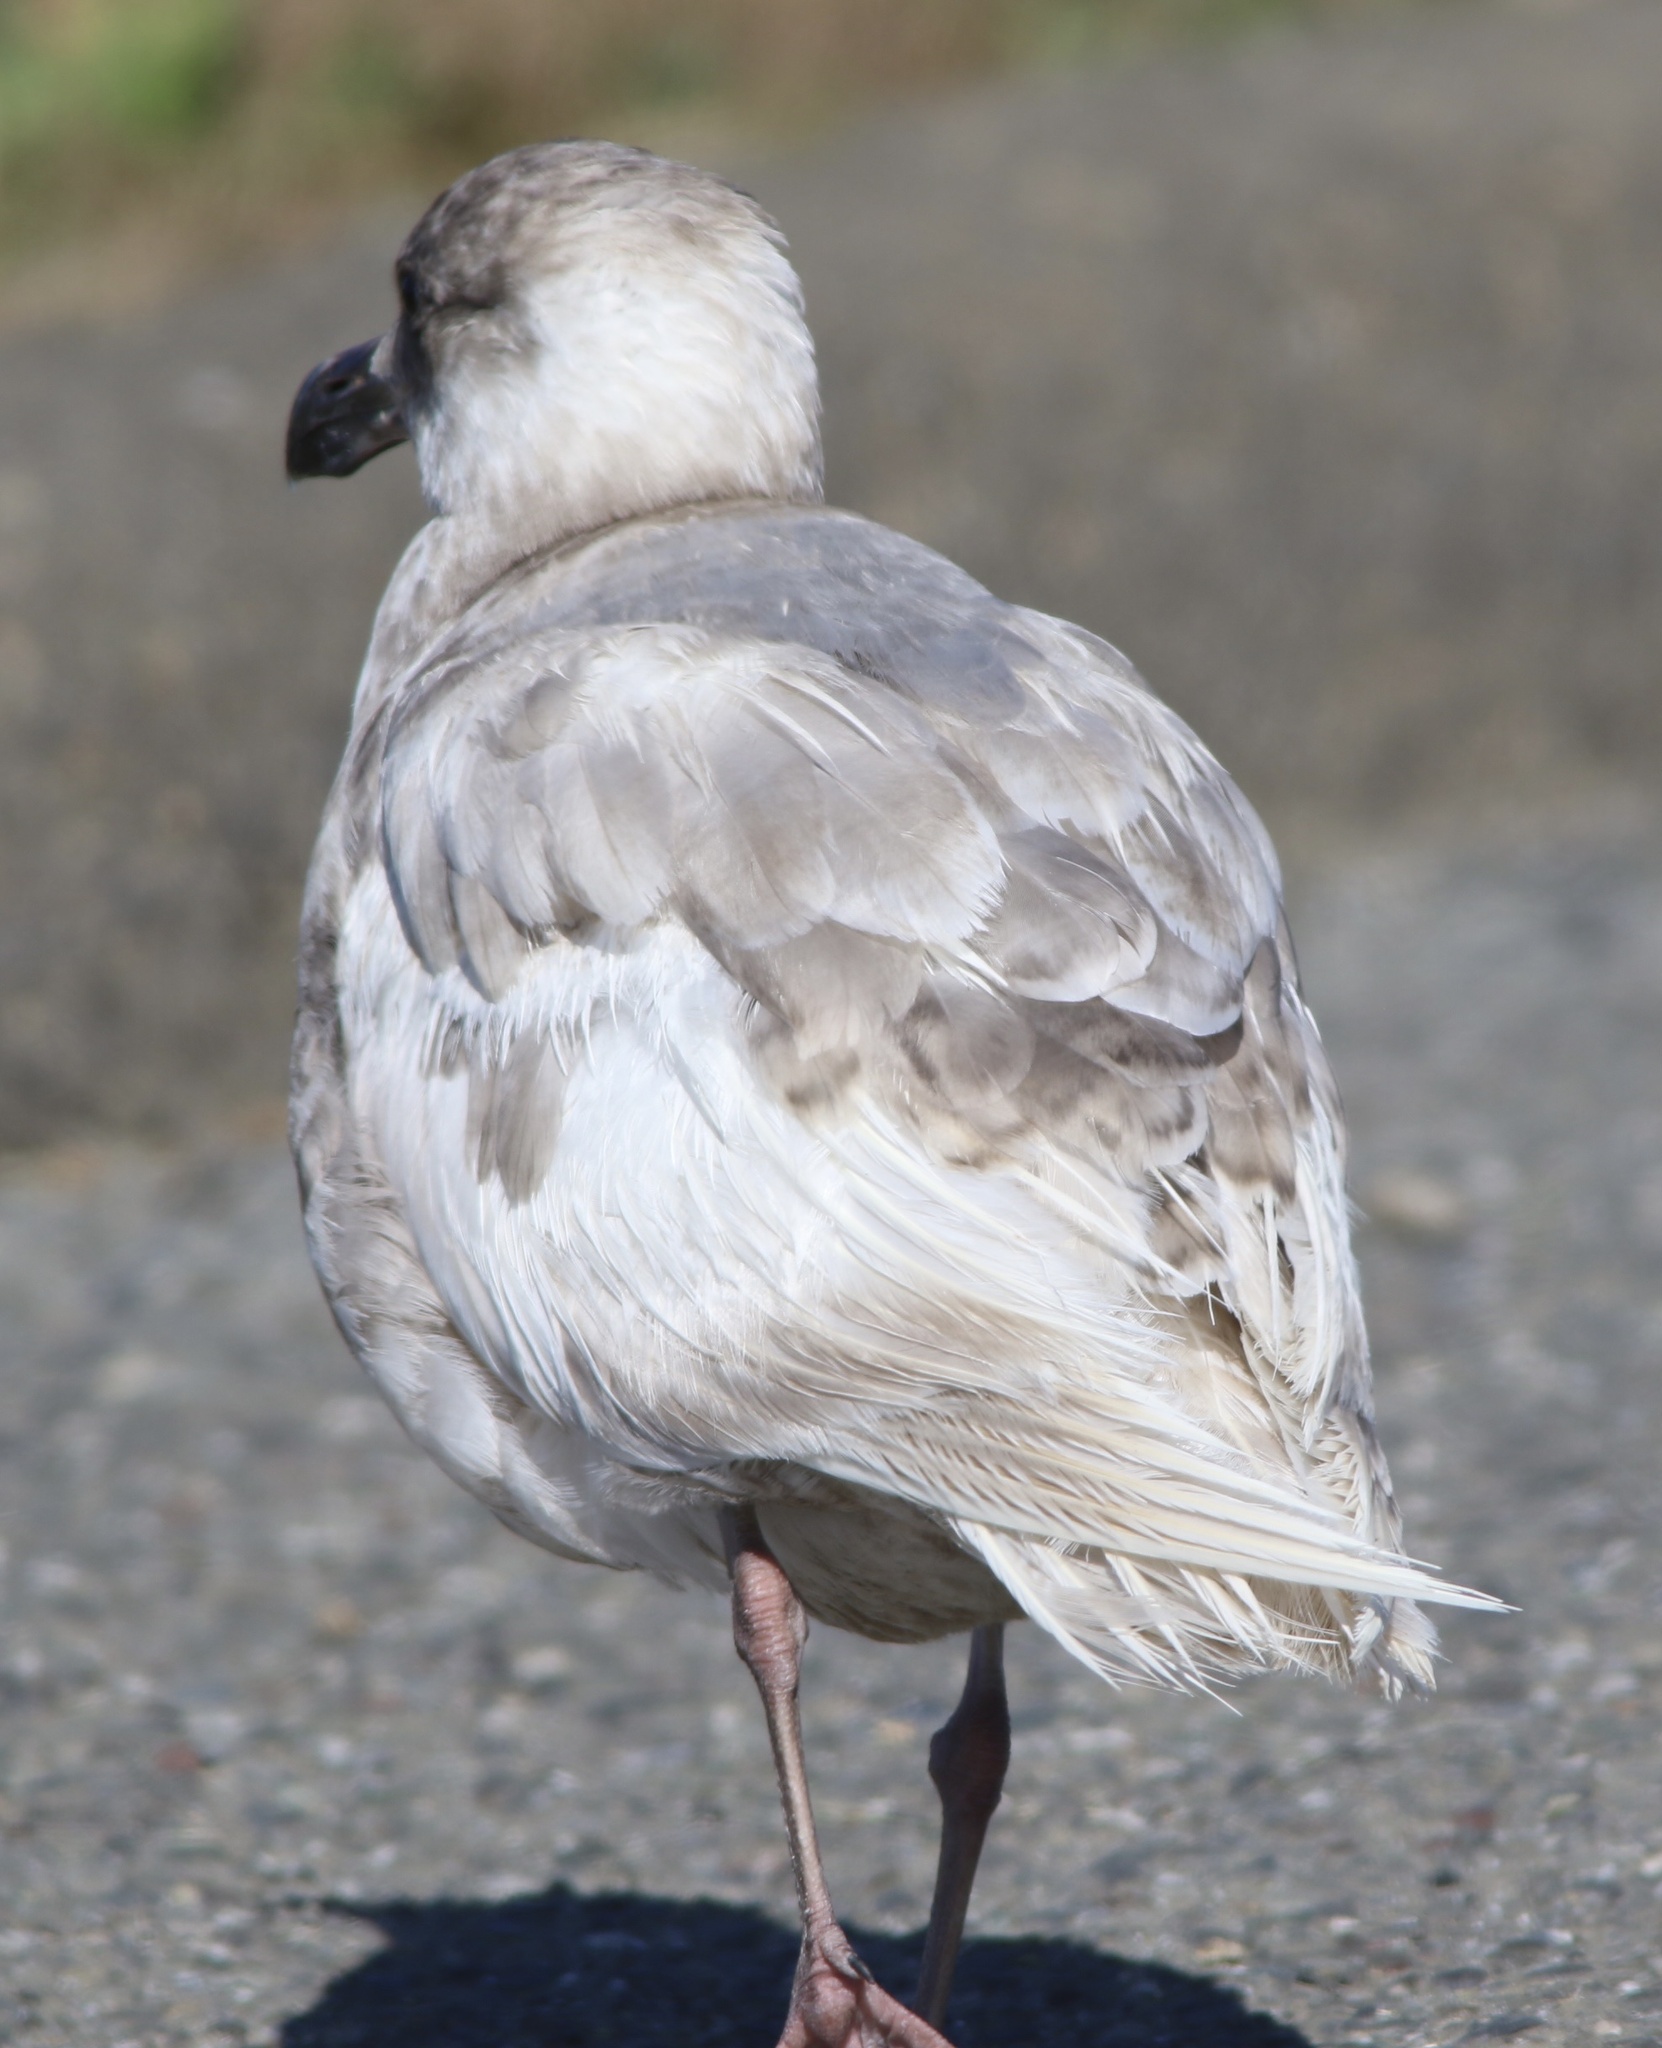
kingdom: Animalia
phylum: Chordata
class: Aves
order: Charadriiformes
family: Laridae
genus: Larus
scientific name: Larus glaucescens
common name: Glaucous-winged gull
